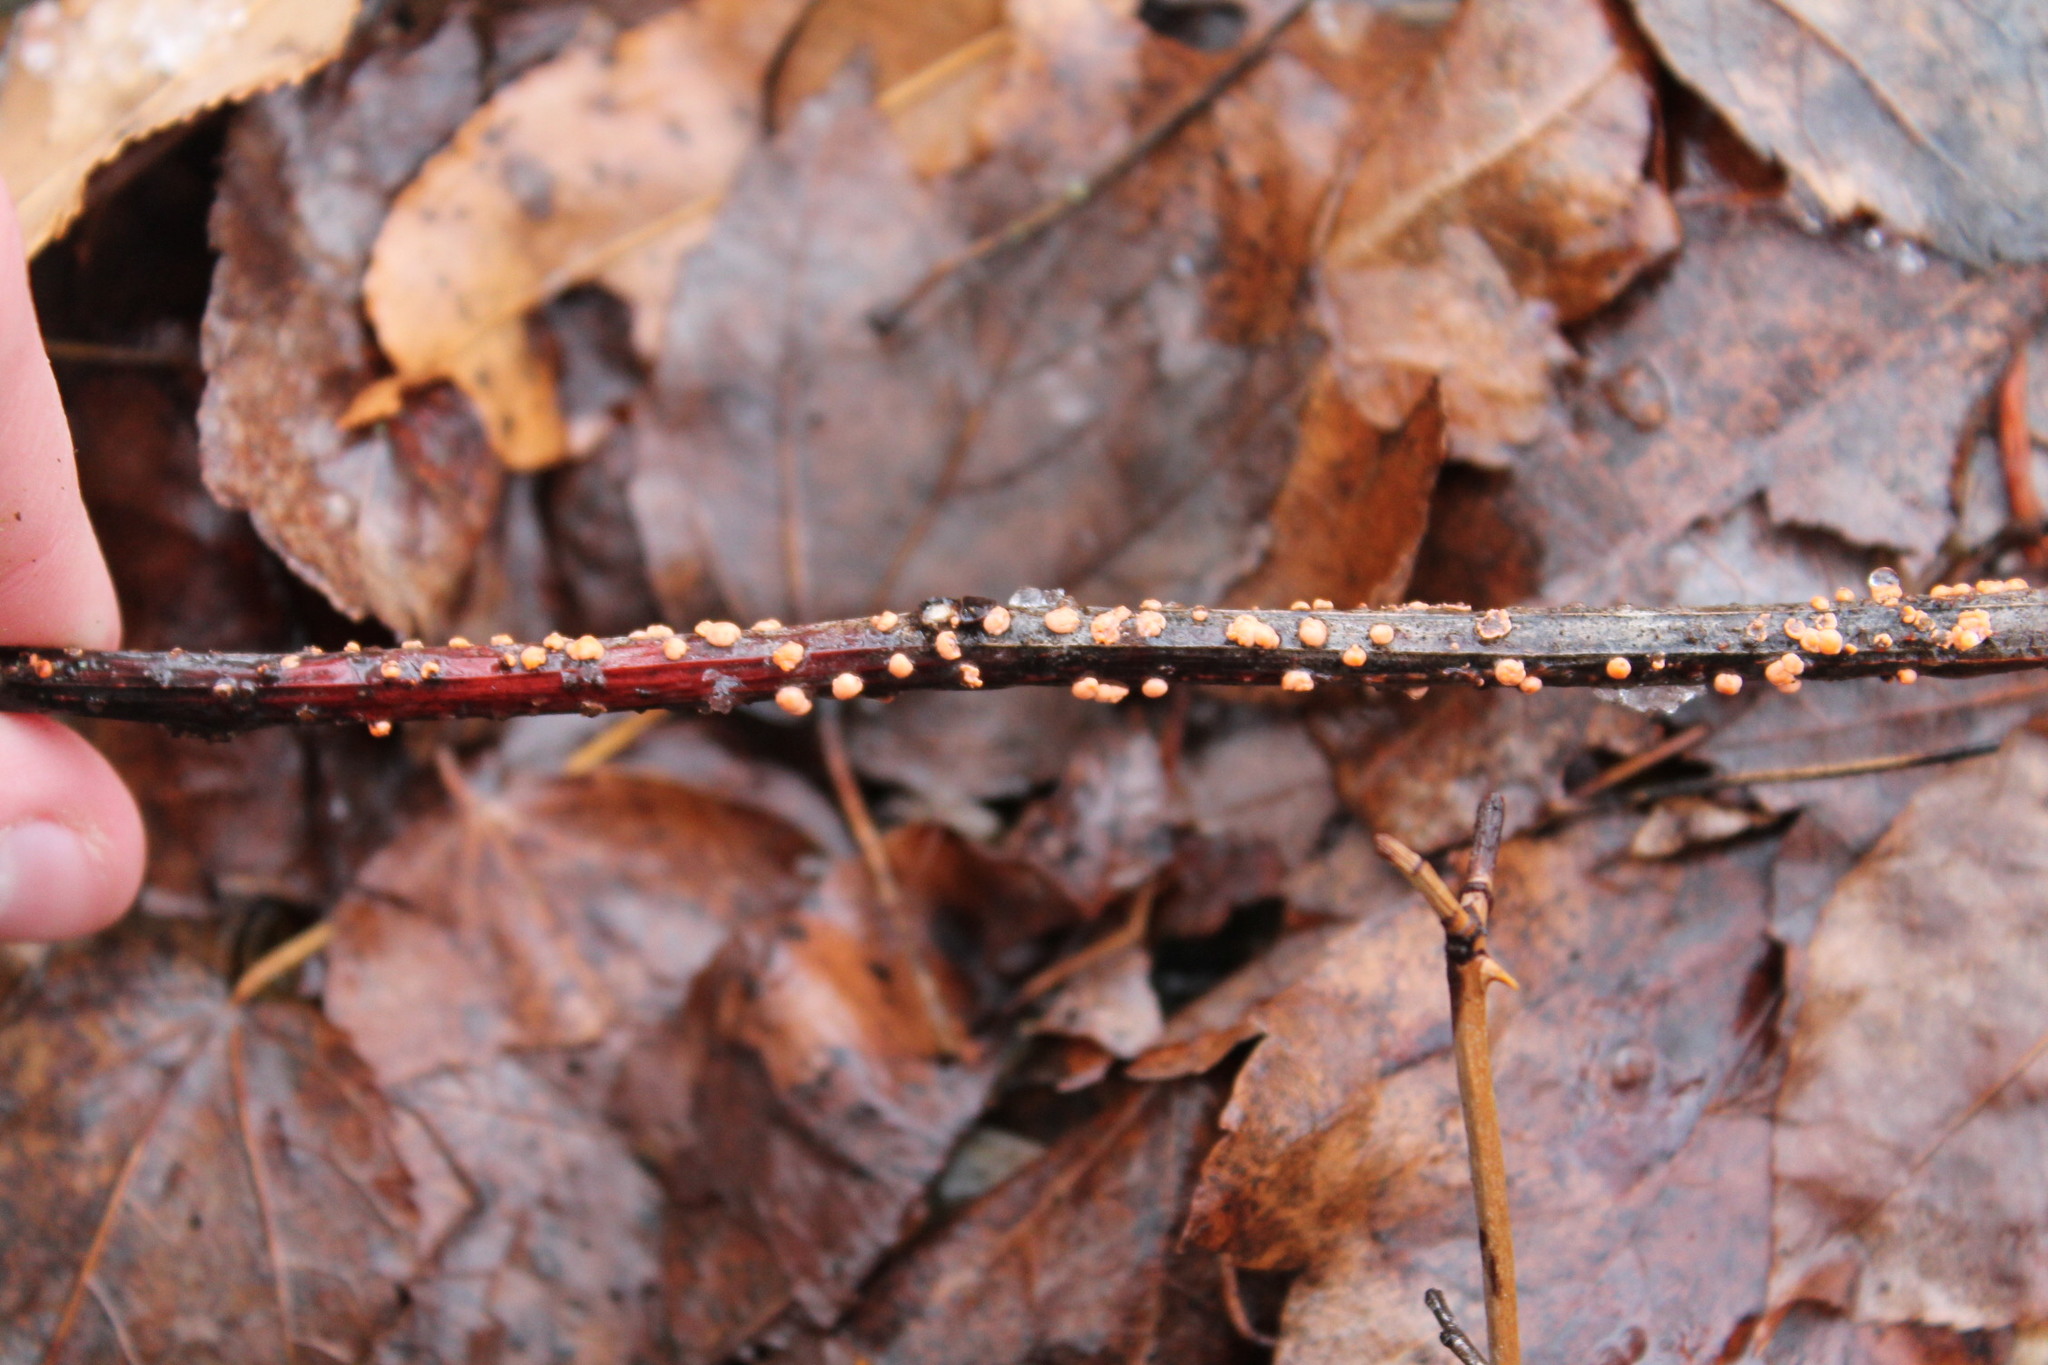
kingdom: Fungi
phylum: Ascomycota
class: Sordariomycetes
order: Hypocreales
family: Nectriaceae
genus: Nectria
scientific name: Nectria cinnabarina
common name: Coral spot
